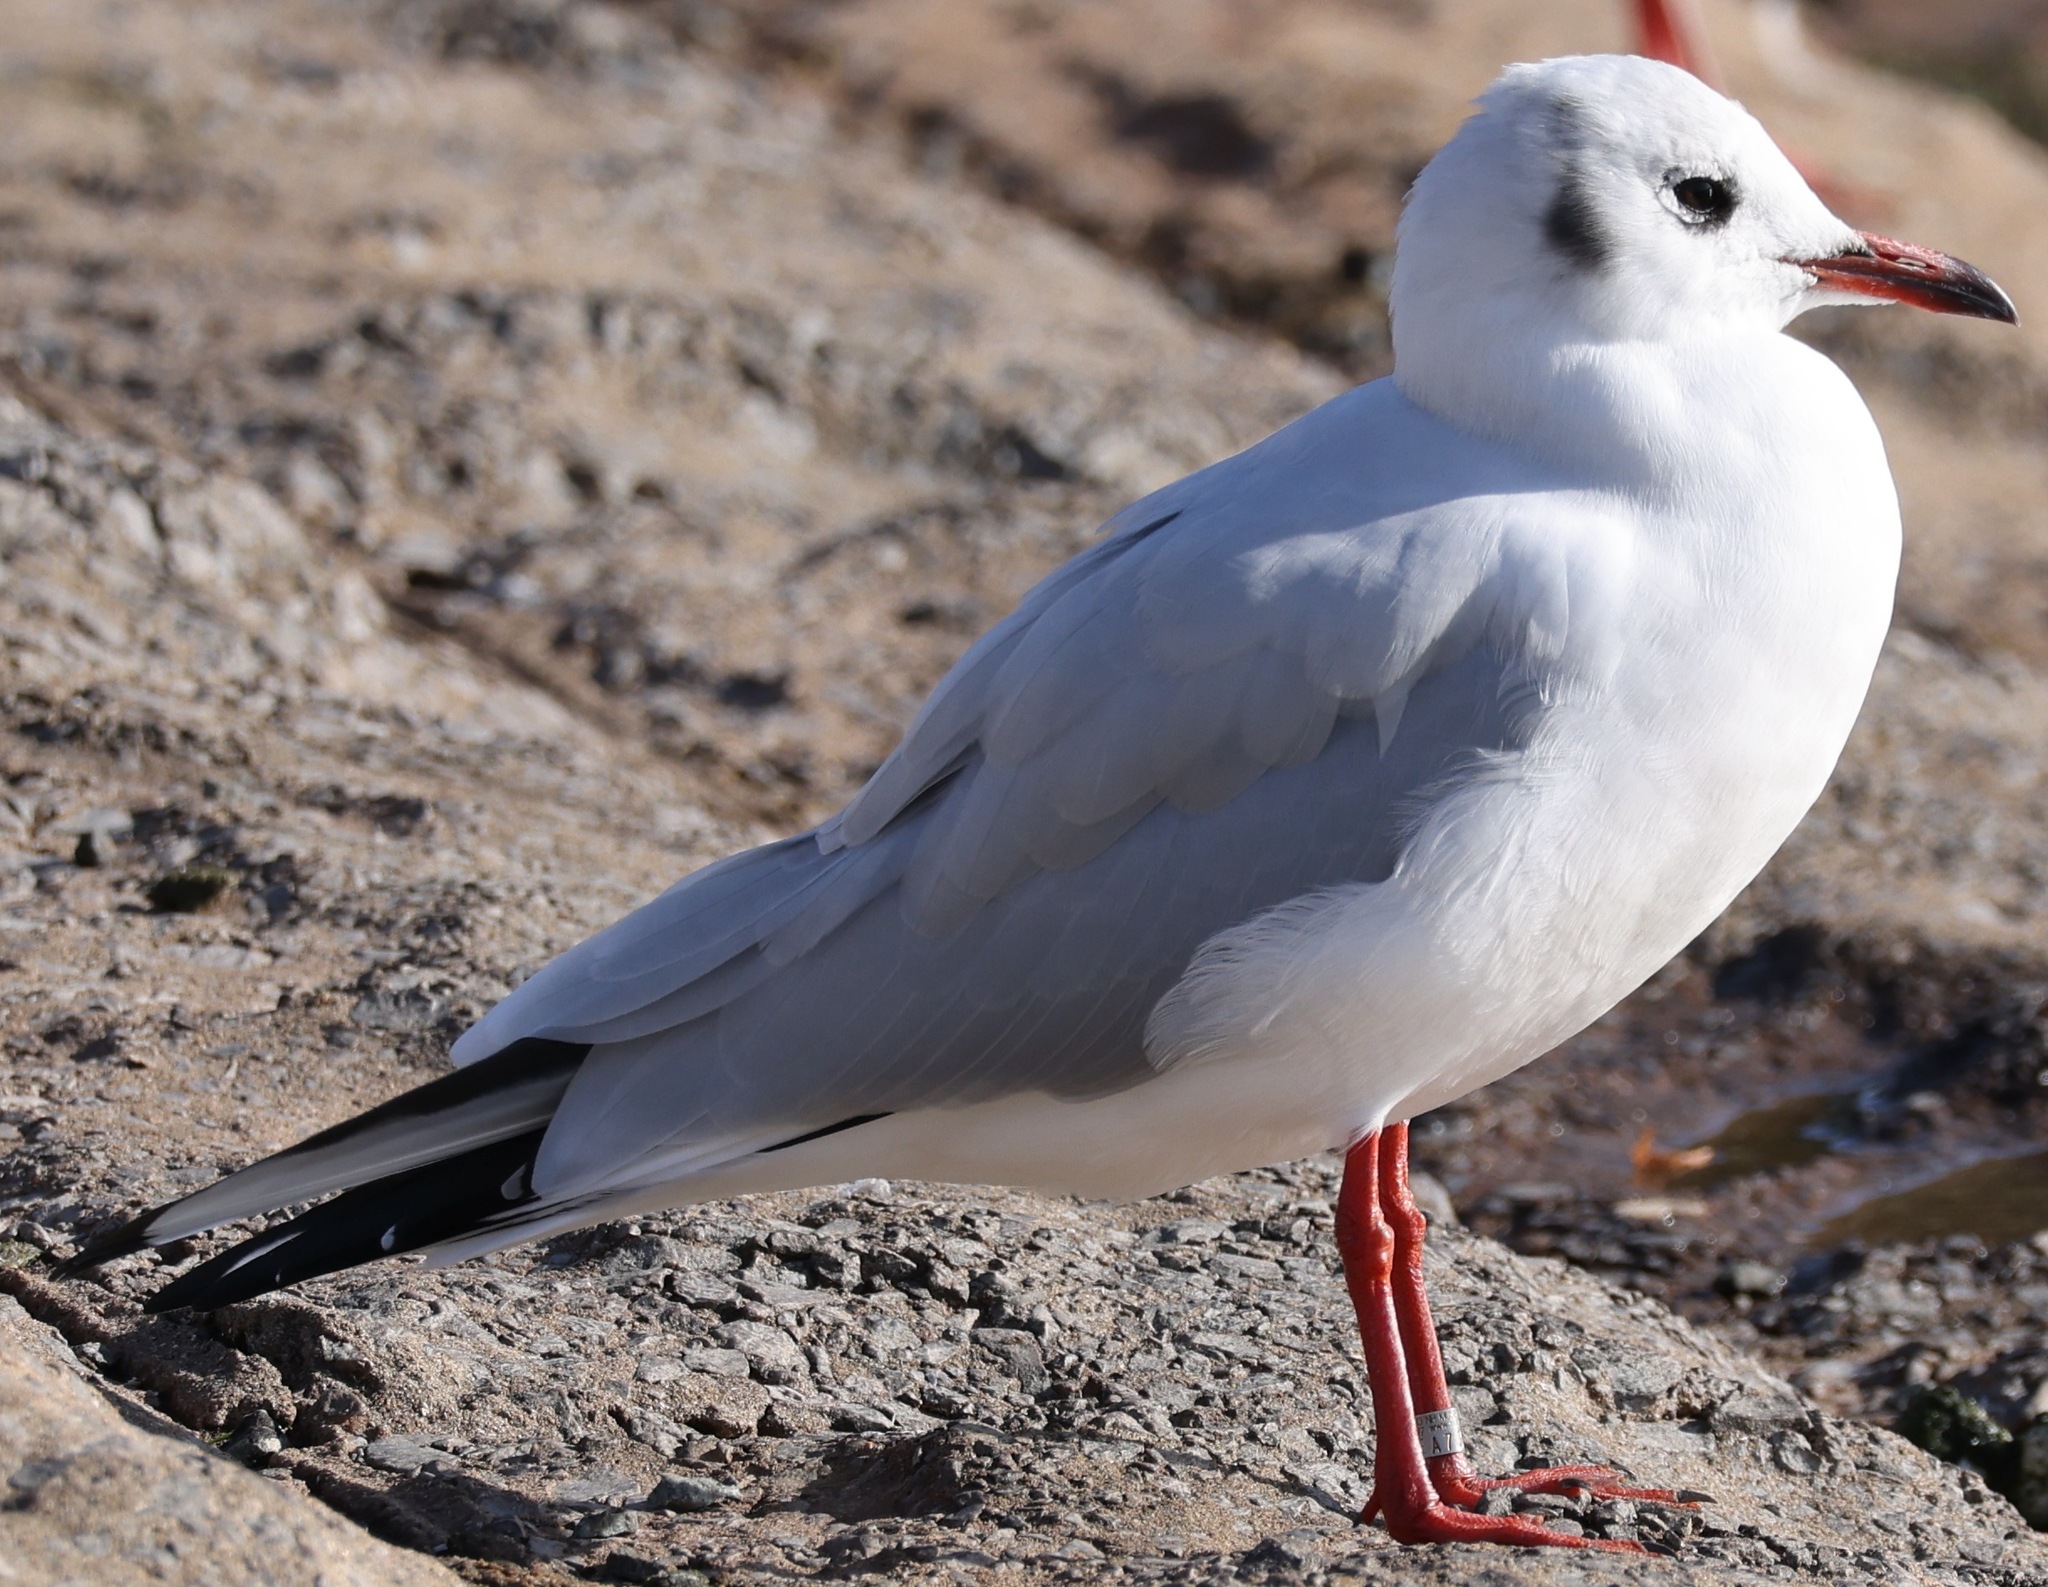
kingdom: Animalia
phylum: Chordata
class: Aves
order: Charadriiformes
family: Laridae
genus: Chroicocephalus
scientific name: Chroicocephalus ridibundus
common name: Black-headed gull
